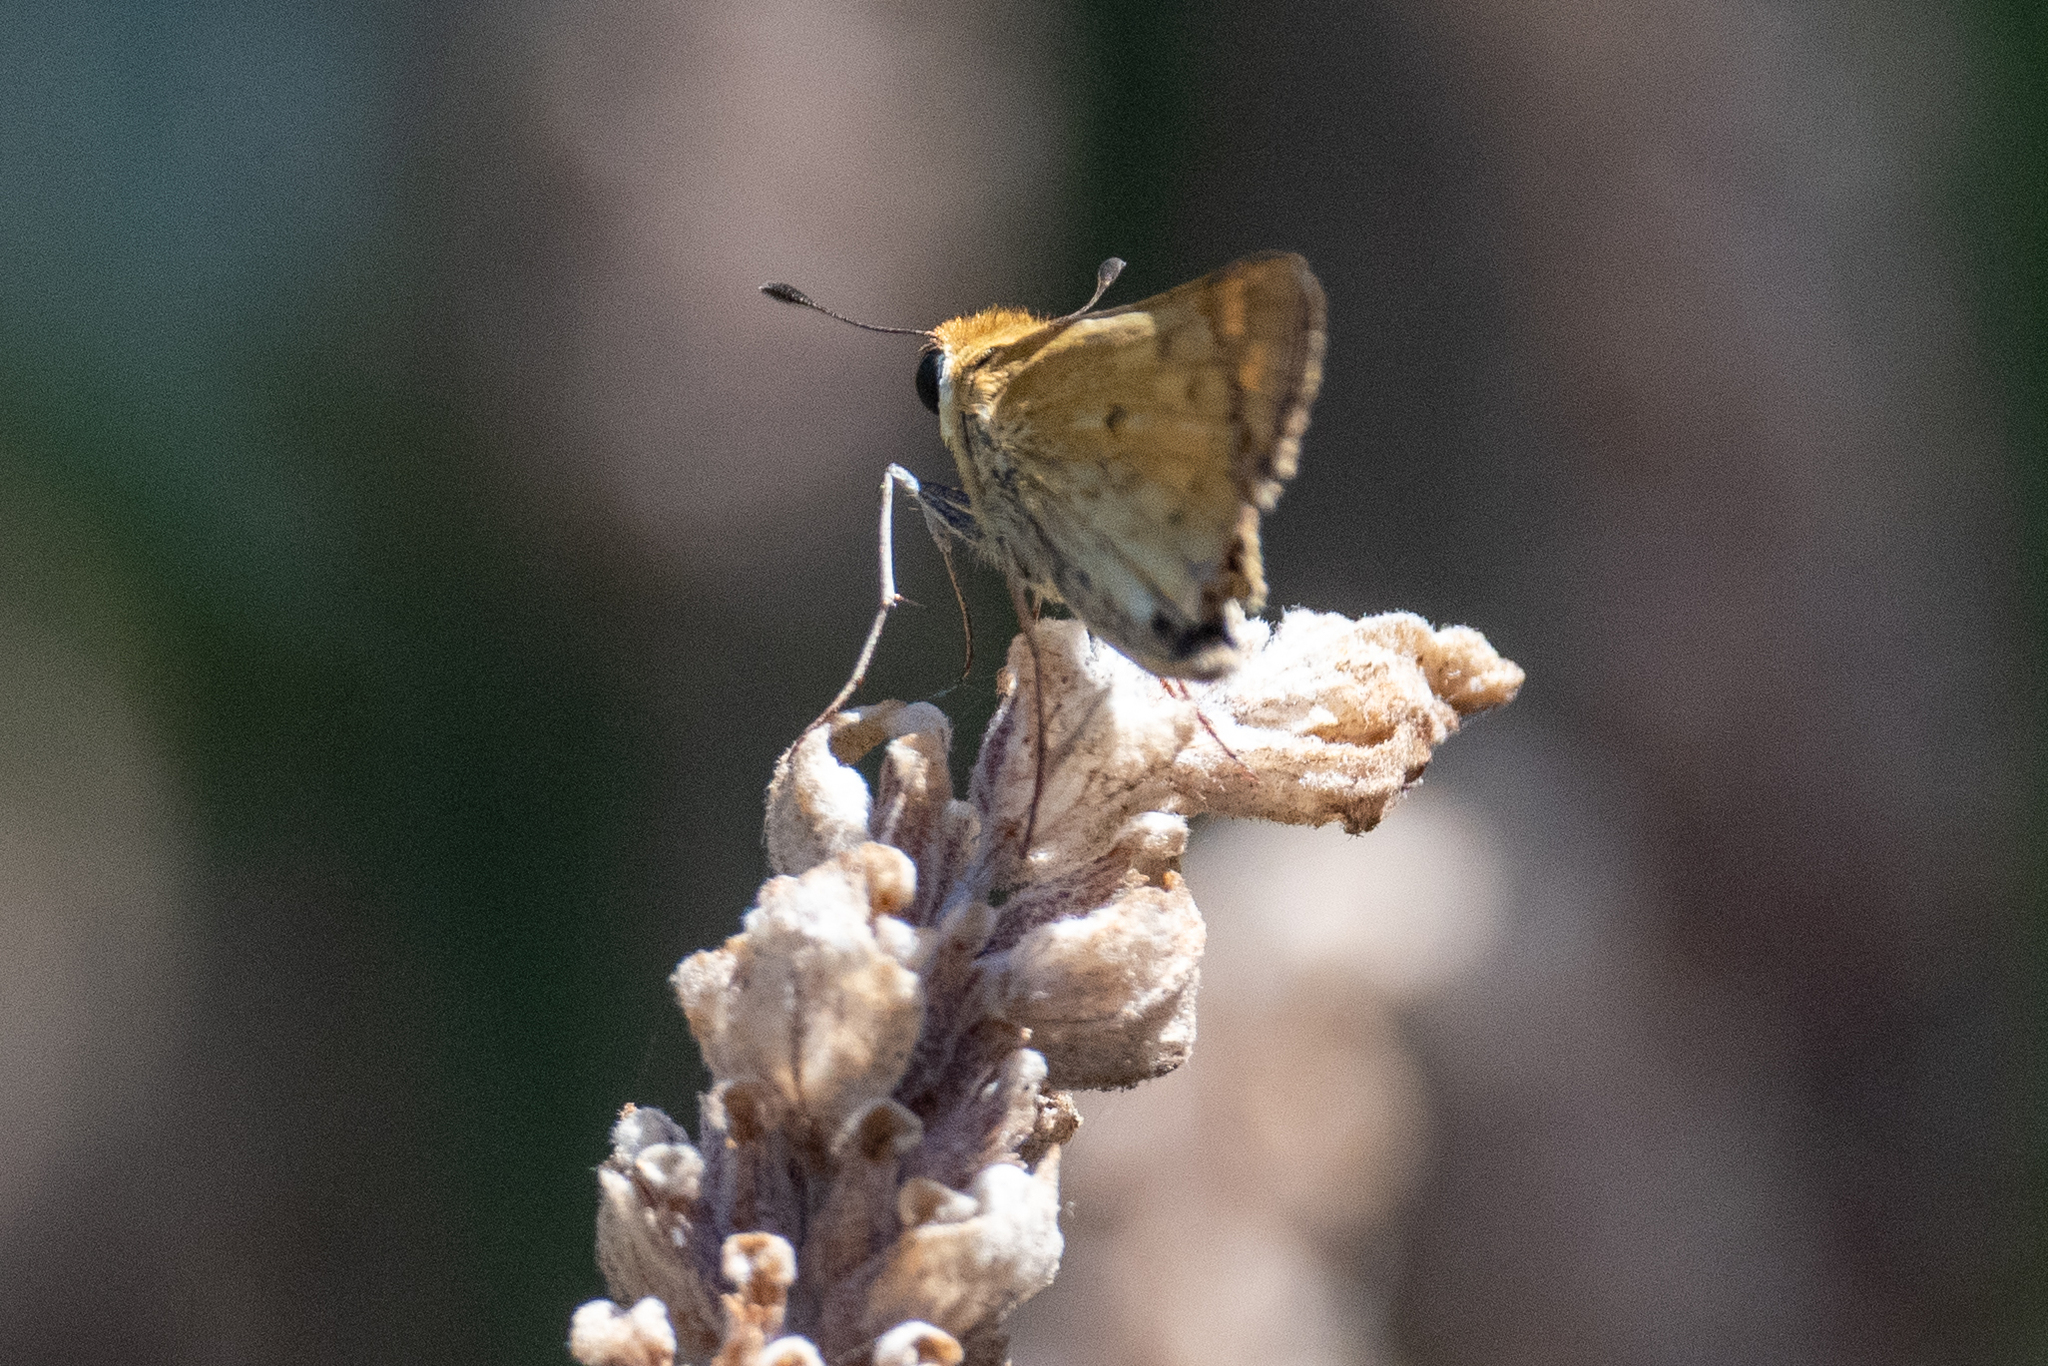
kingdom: Animalia
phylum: Arthropoda
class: Insecta
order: Lepidoptera
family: Hesperiidae
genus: Hylephila
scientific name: Hylephila phyleus
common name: Fiery skipper
